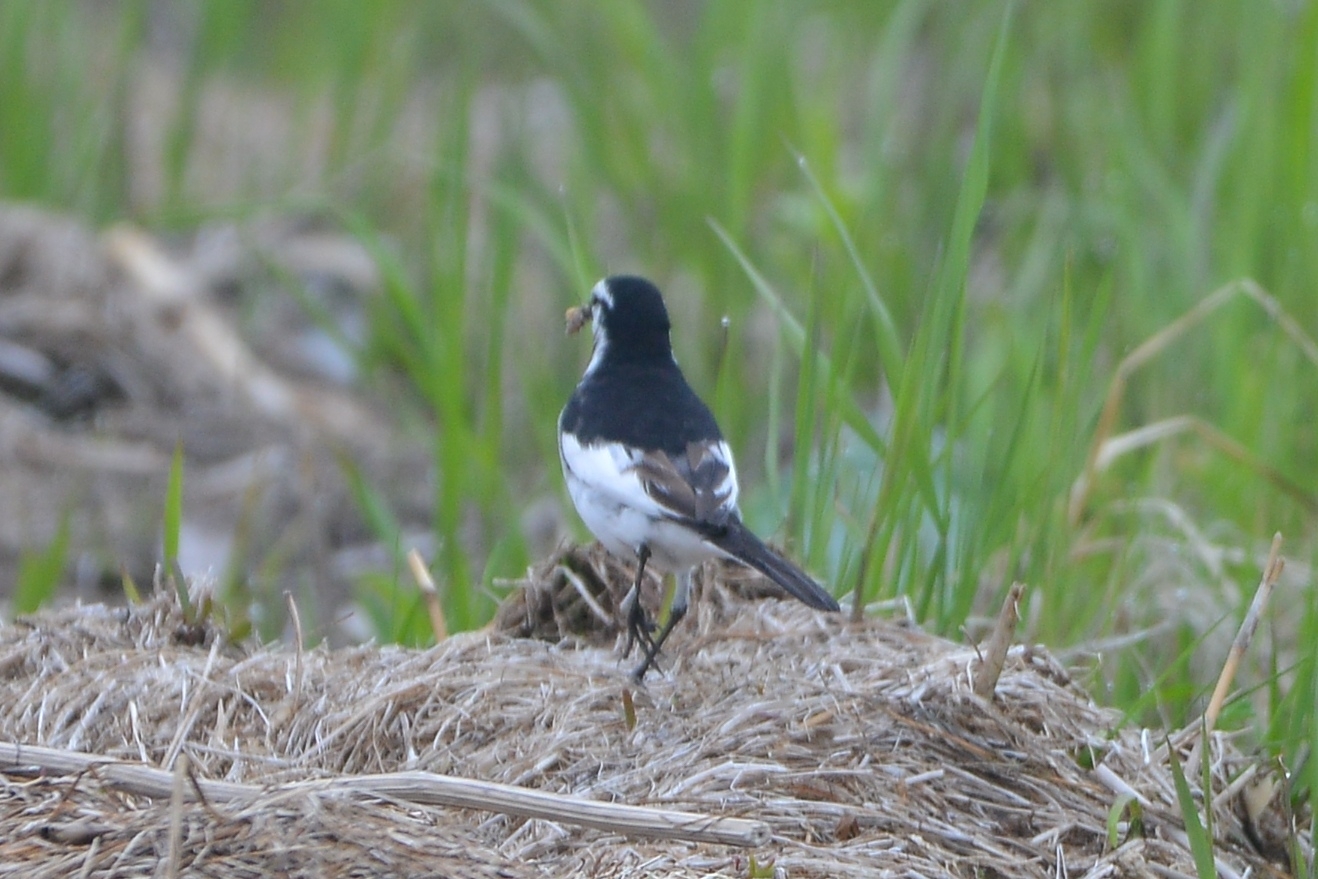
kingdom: Animalia
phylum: Chordata
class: Aves
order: Passeriformes
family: Motacillidae
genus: Motacilla
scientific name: Motacilla alba
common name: White wagtail
